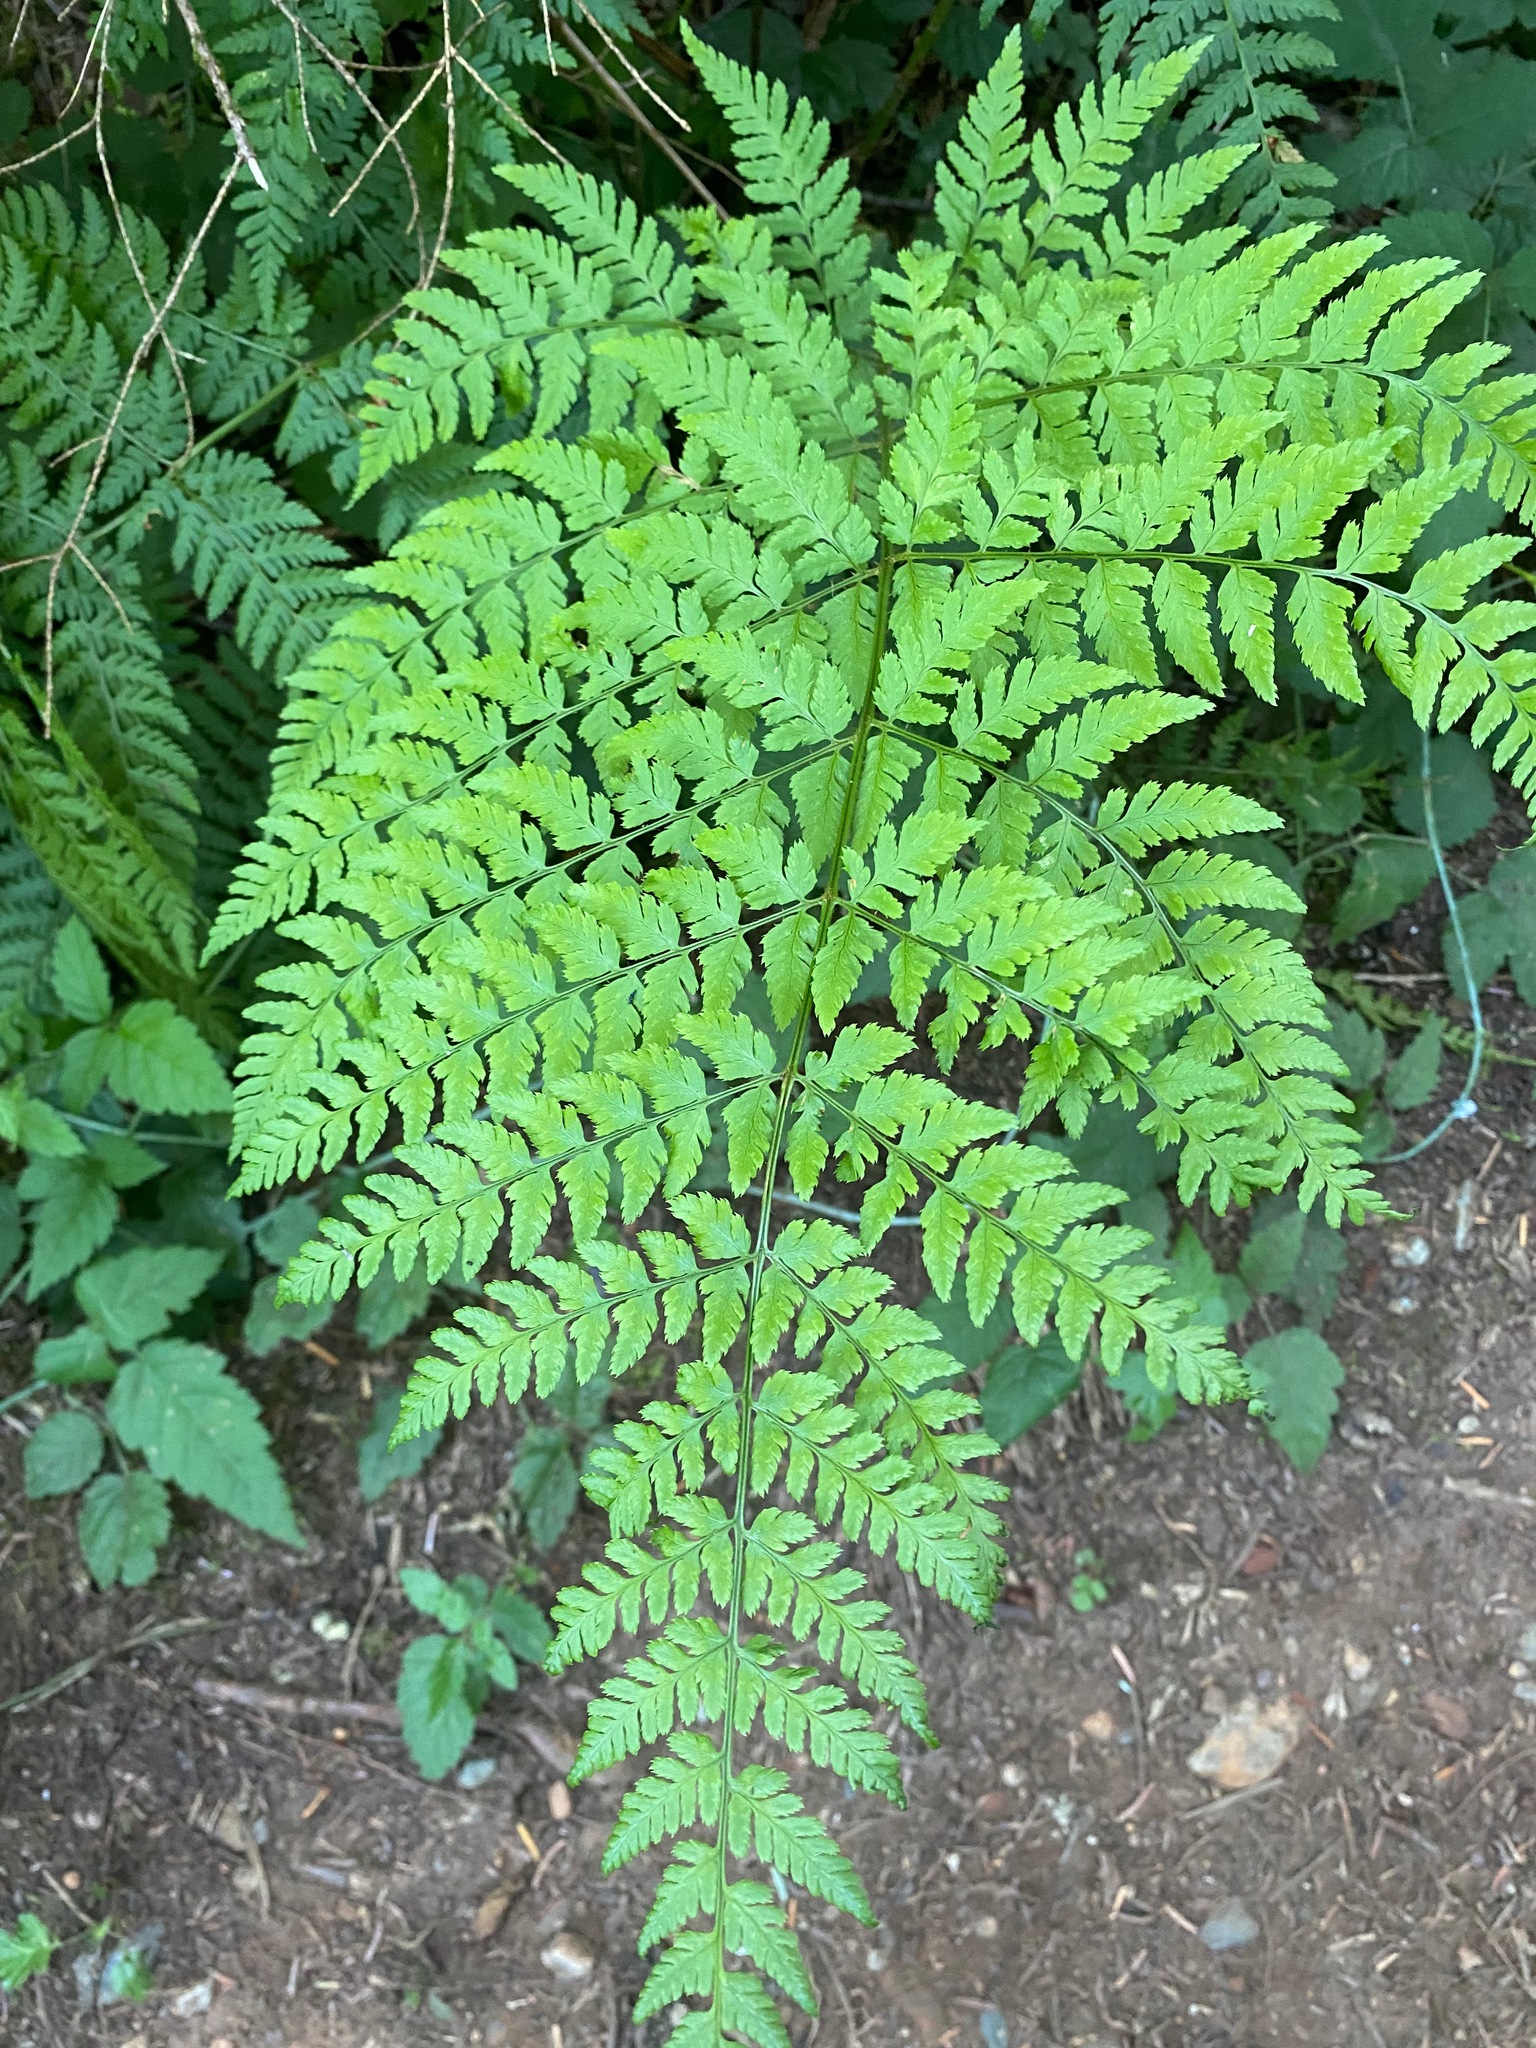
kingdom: Plantae
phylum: Tracheophyta
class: Polypodiopsida
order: Polypodiales
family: Dryopteridaceae
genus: Dryopteris
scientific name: Dryopteris expansa
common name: Northern buckler fern
